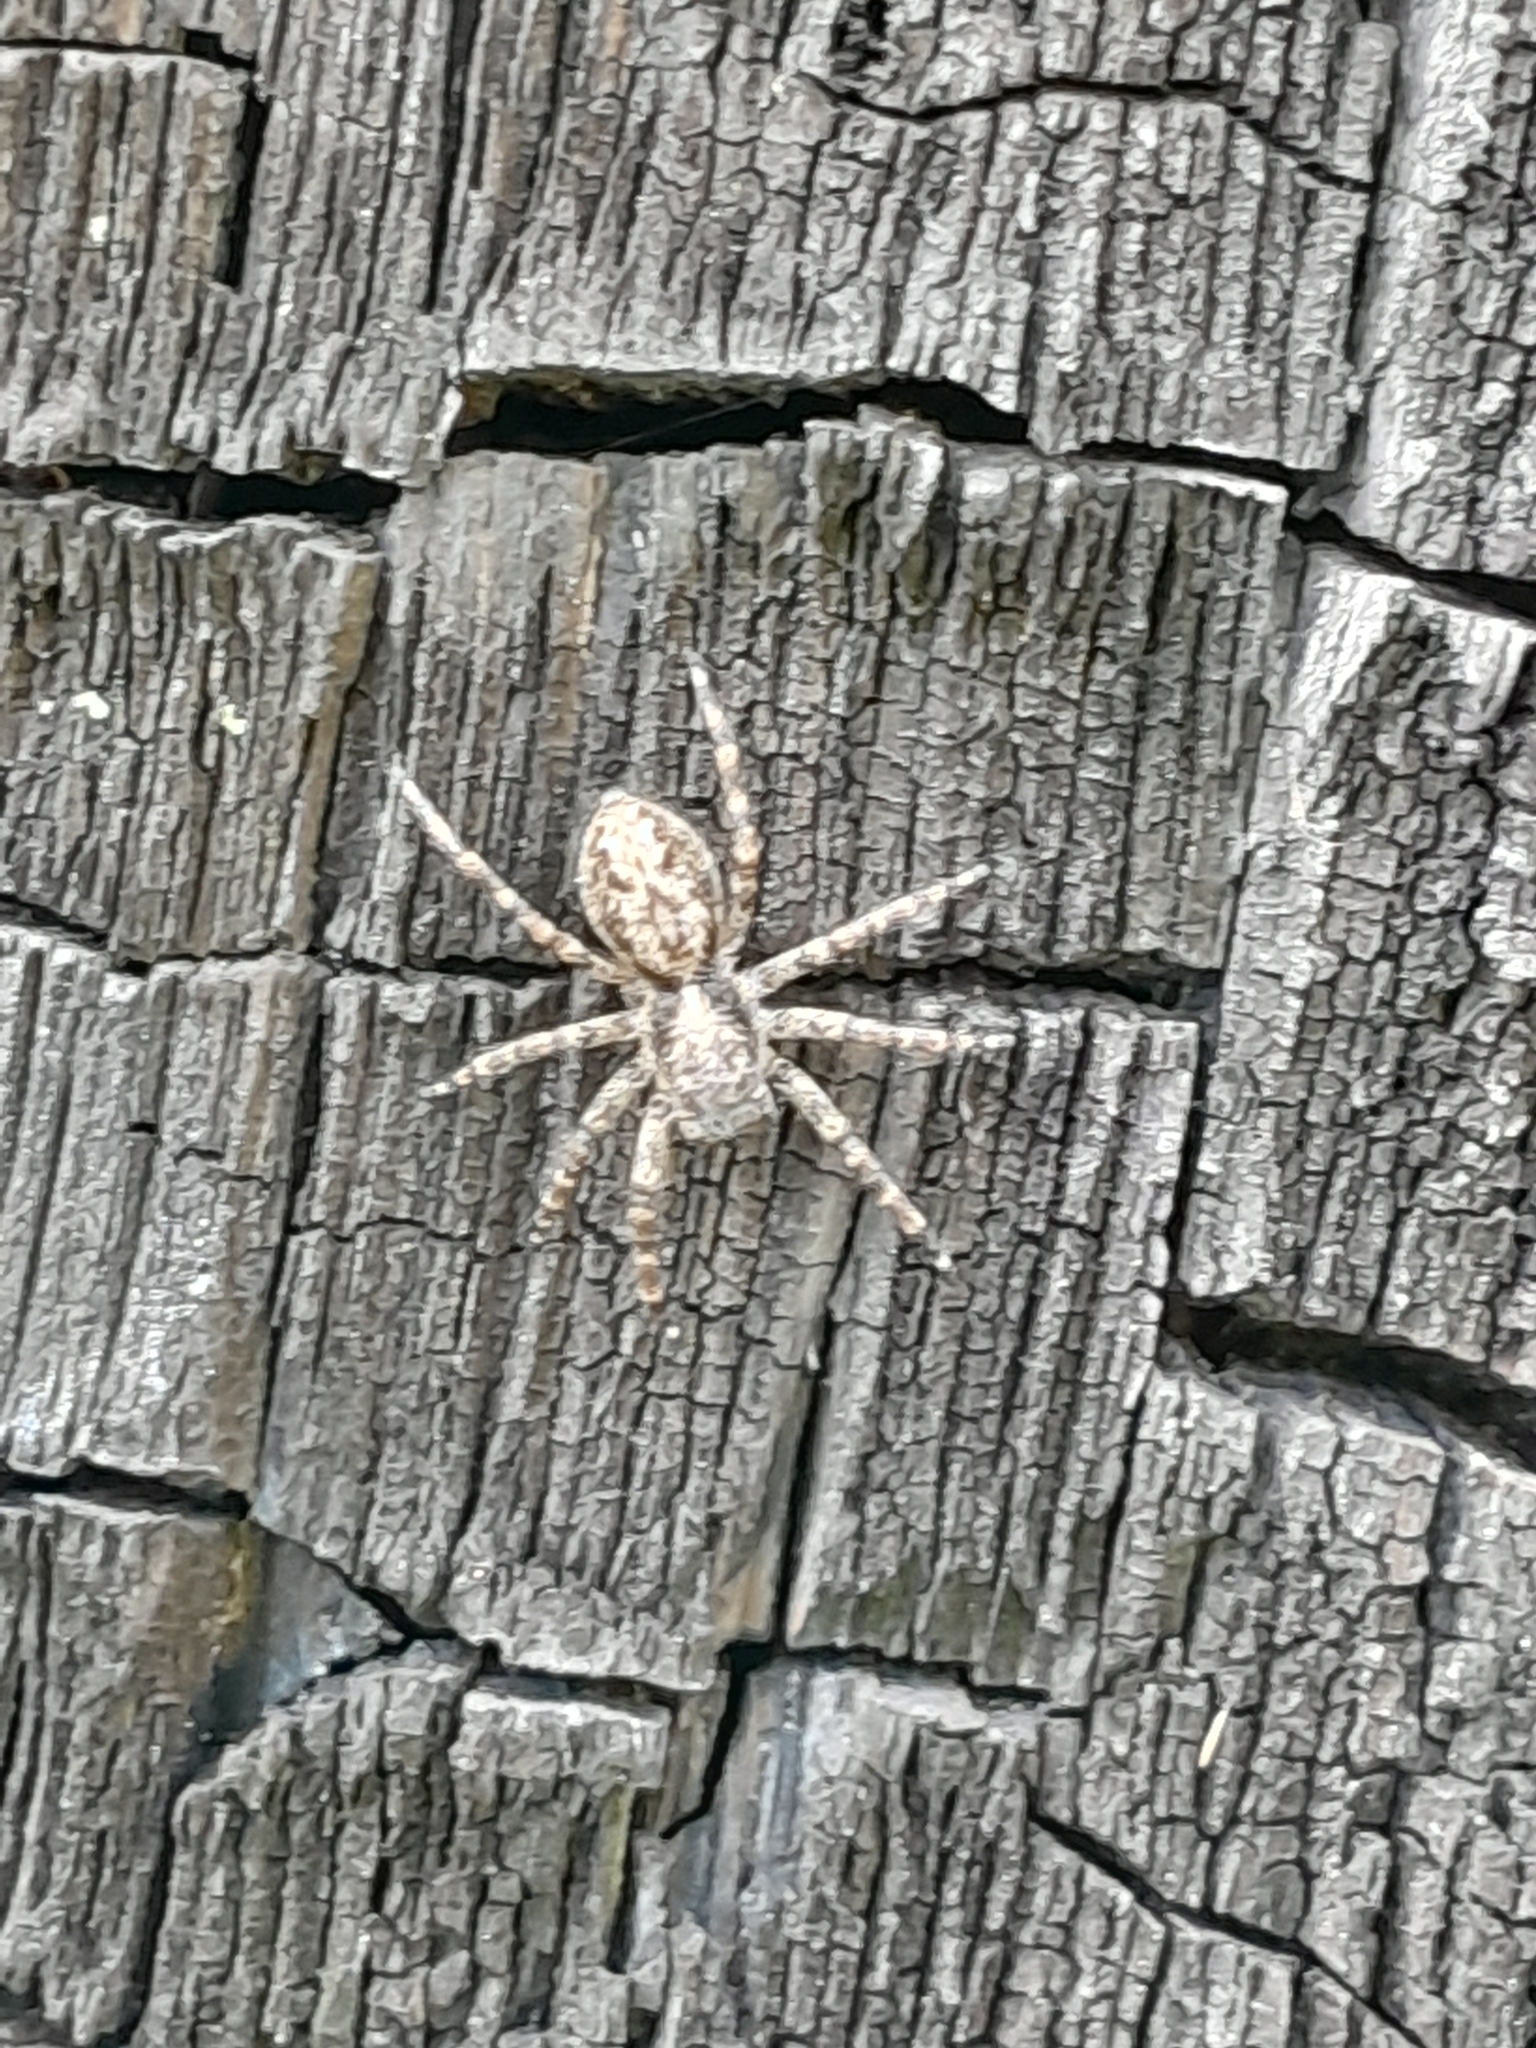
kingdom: Animalia
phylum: Arthropoda
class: Arachnida
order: Araneae
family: Salticidae
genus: Titanattus
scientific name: Titanattus andinus
